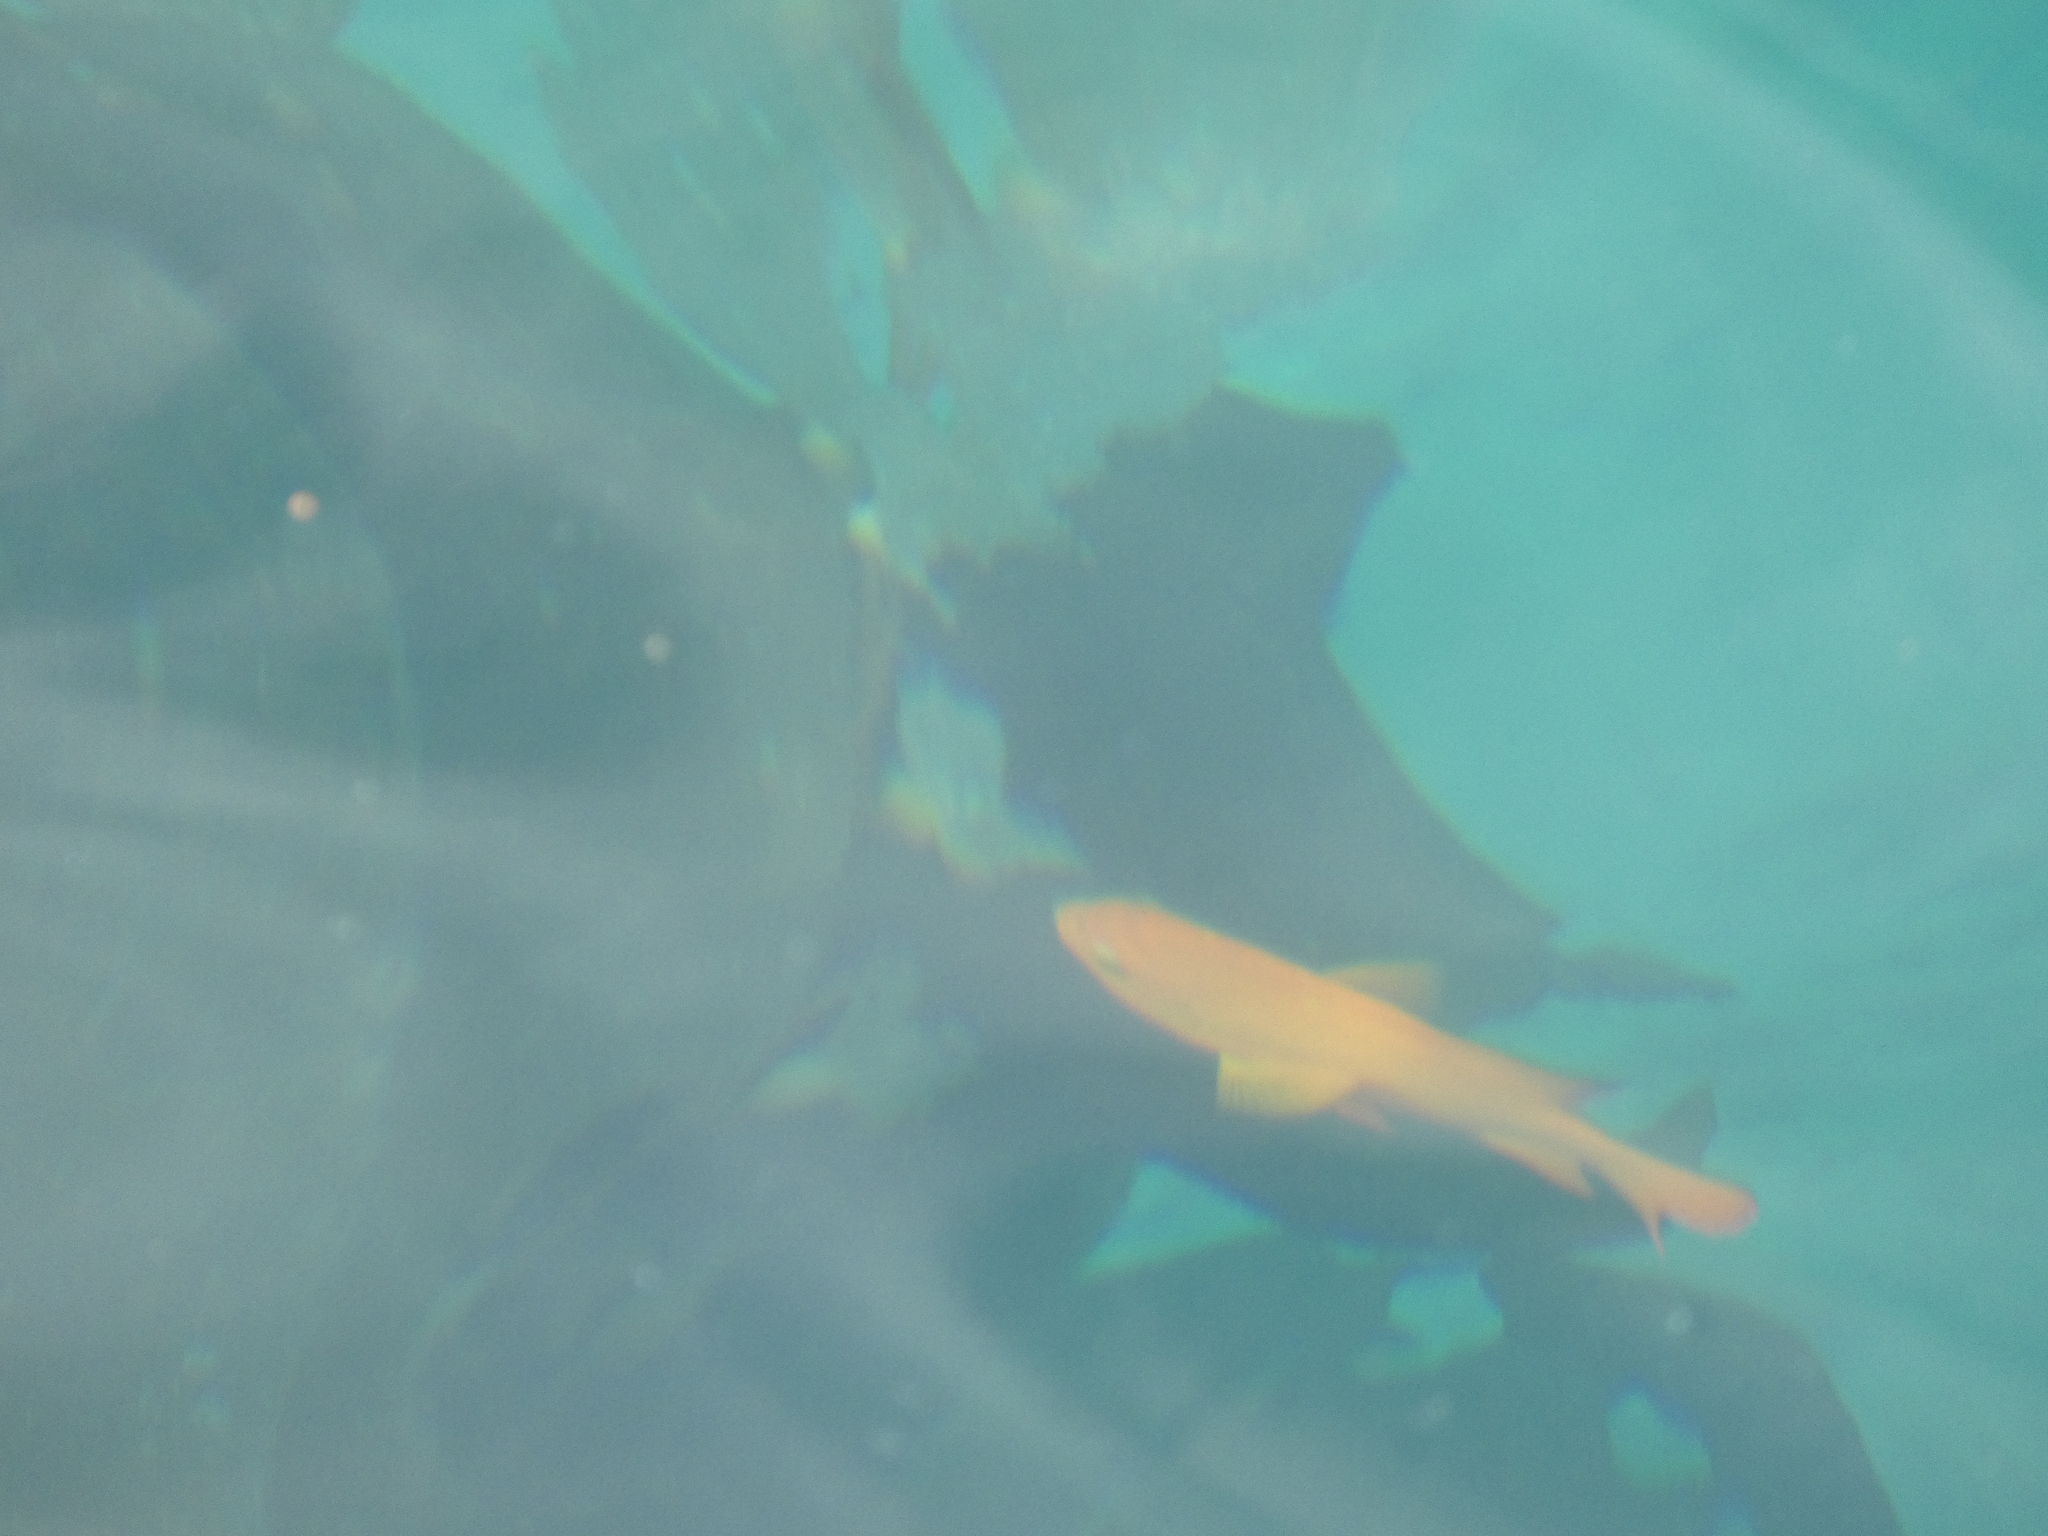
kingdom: Animalia
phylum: Chordata
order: Perciformes
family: Pomacentridae
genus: Hypsypops
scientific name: Hypsypops rubicundus
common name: Garibaldi
